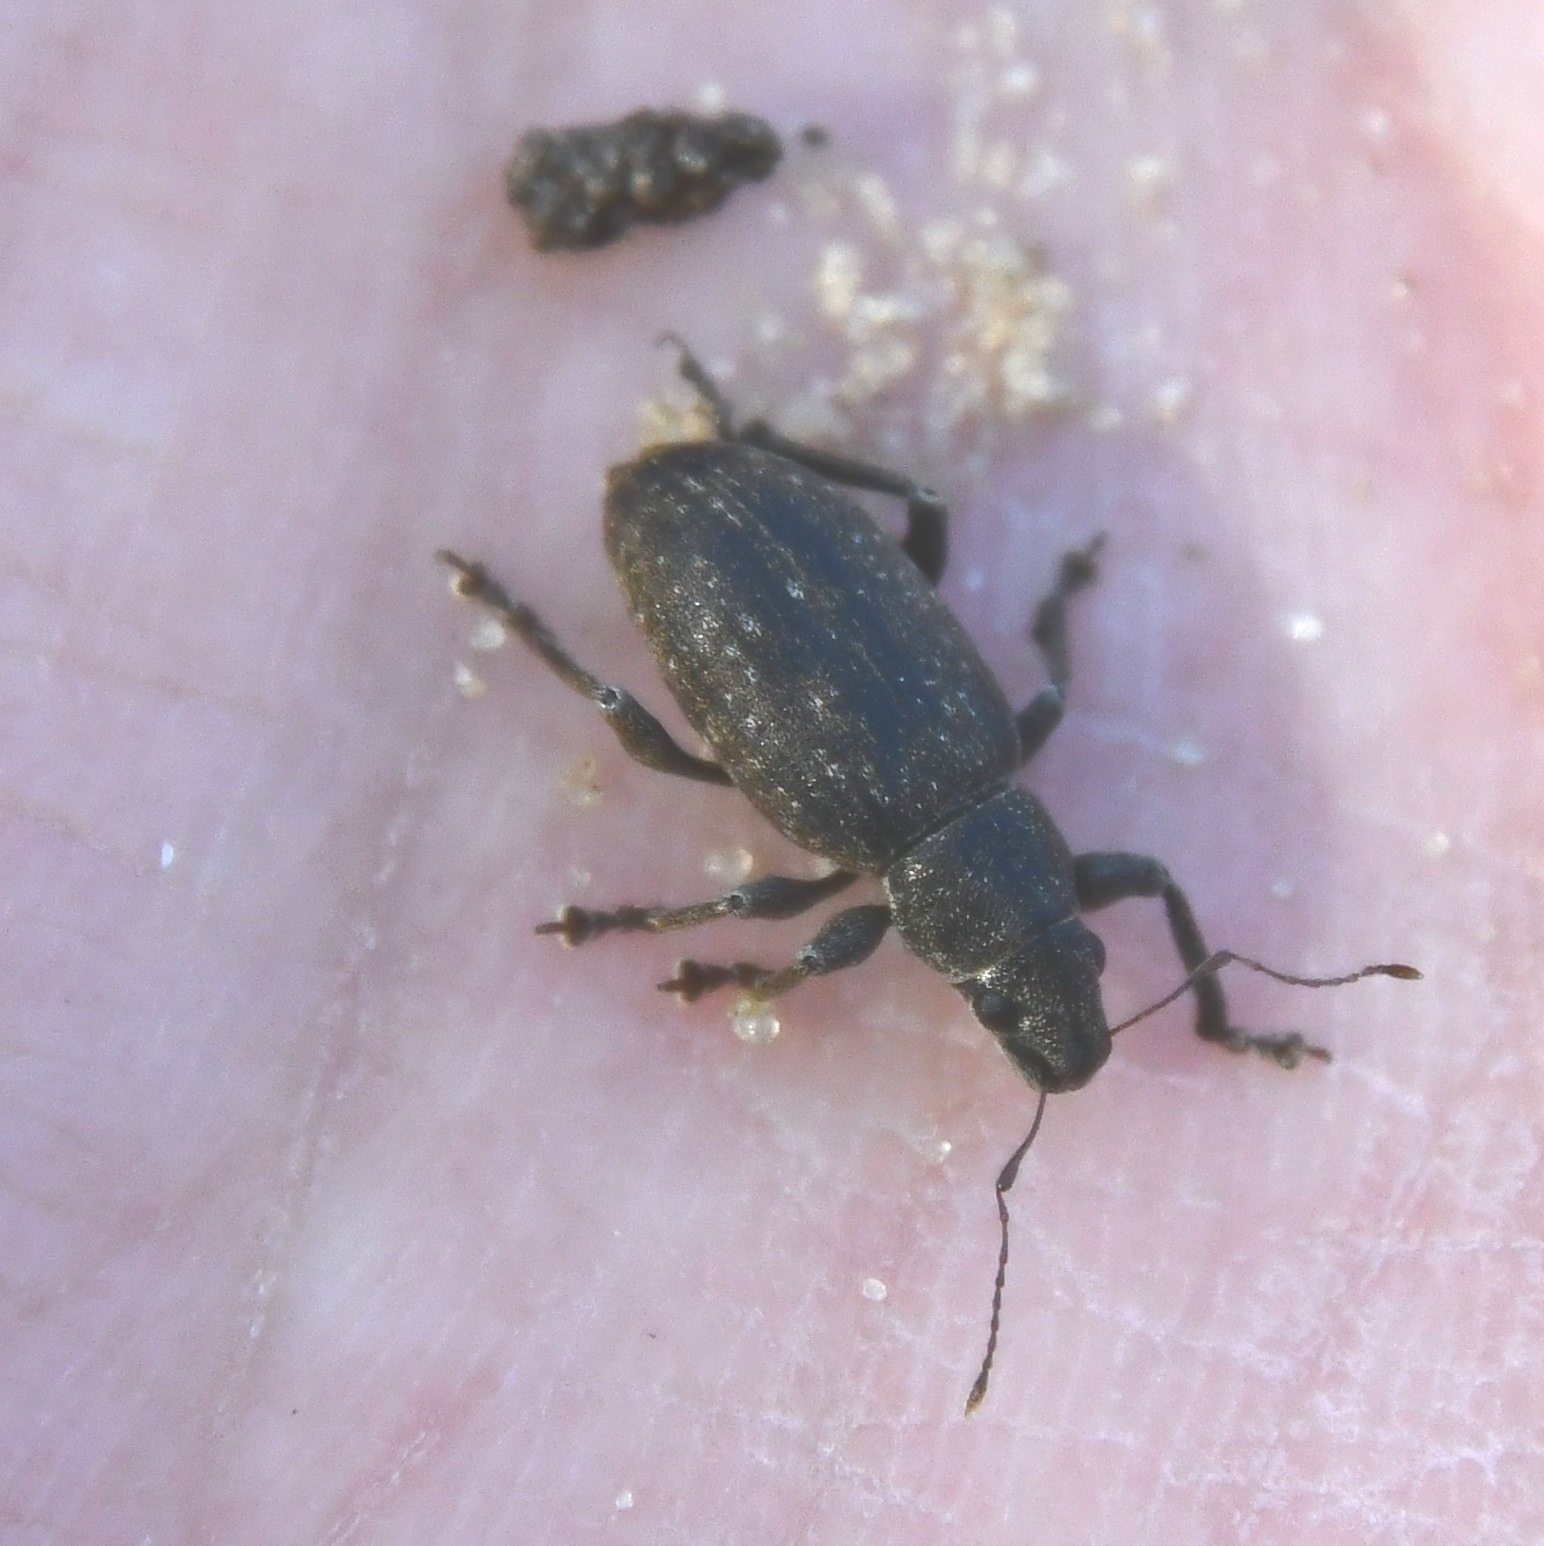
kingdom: Animalia
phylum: Arthropoda
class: Insecta
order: Coleoptera
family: Curculionidae
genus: Brachyderes
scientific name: Brachyderes incanus
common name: Weevil
